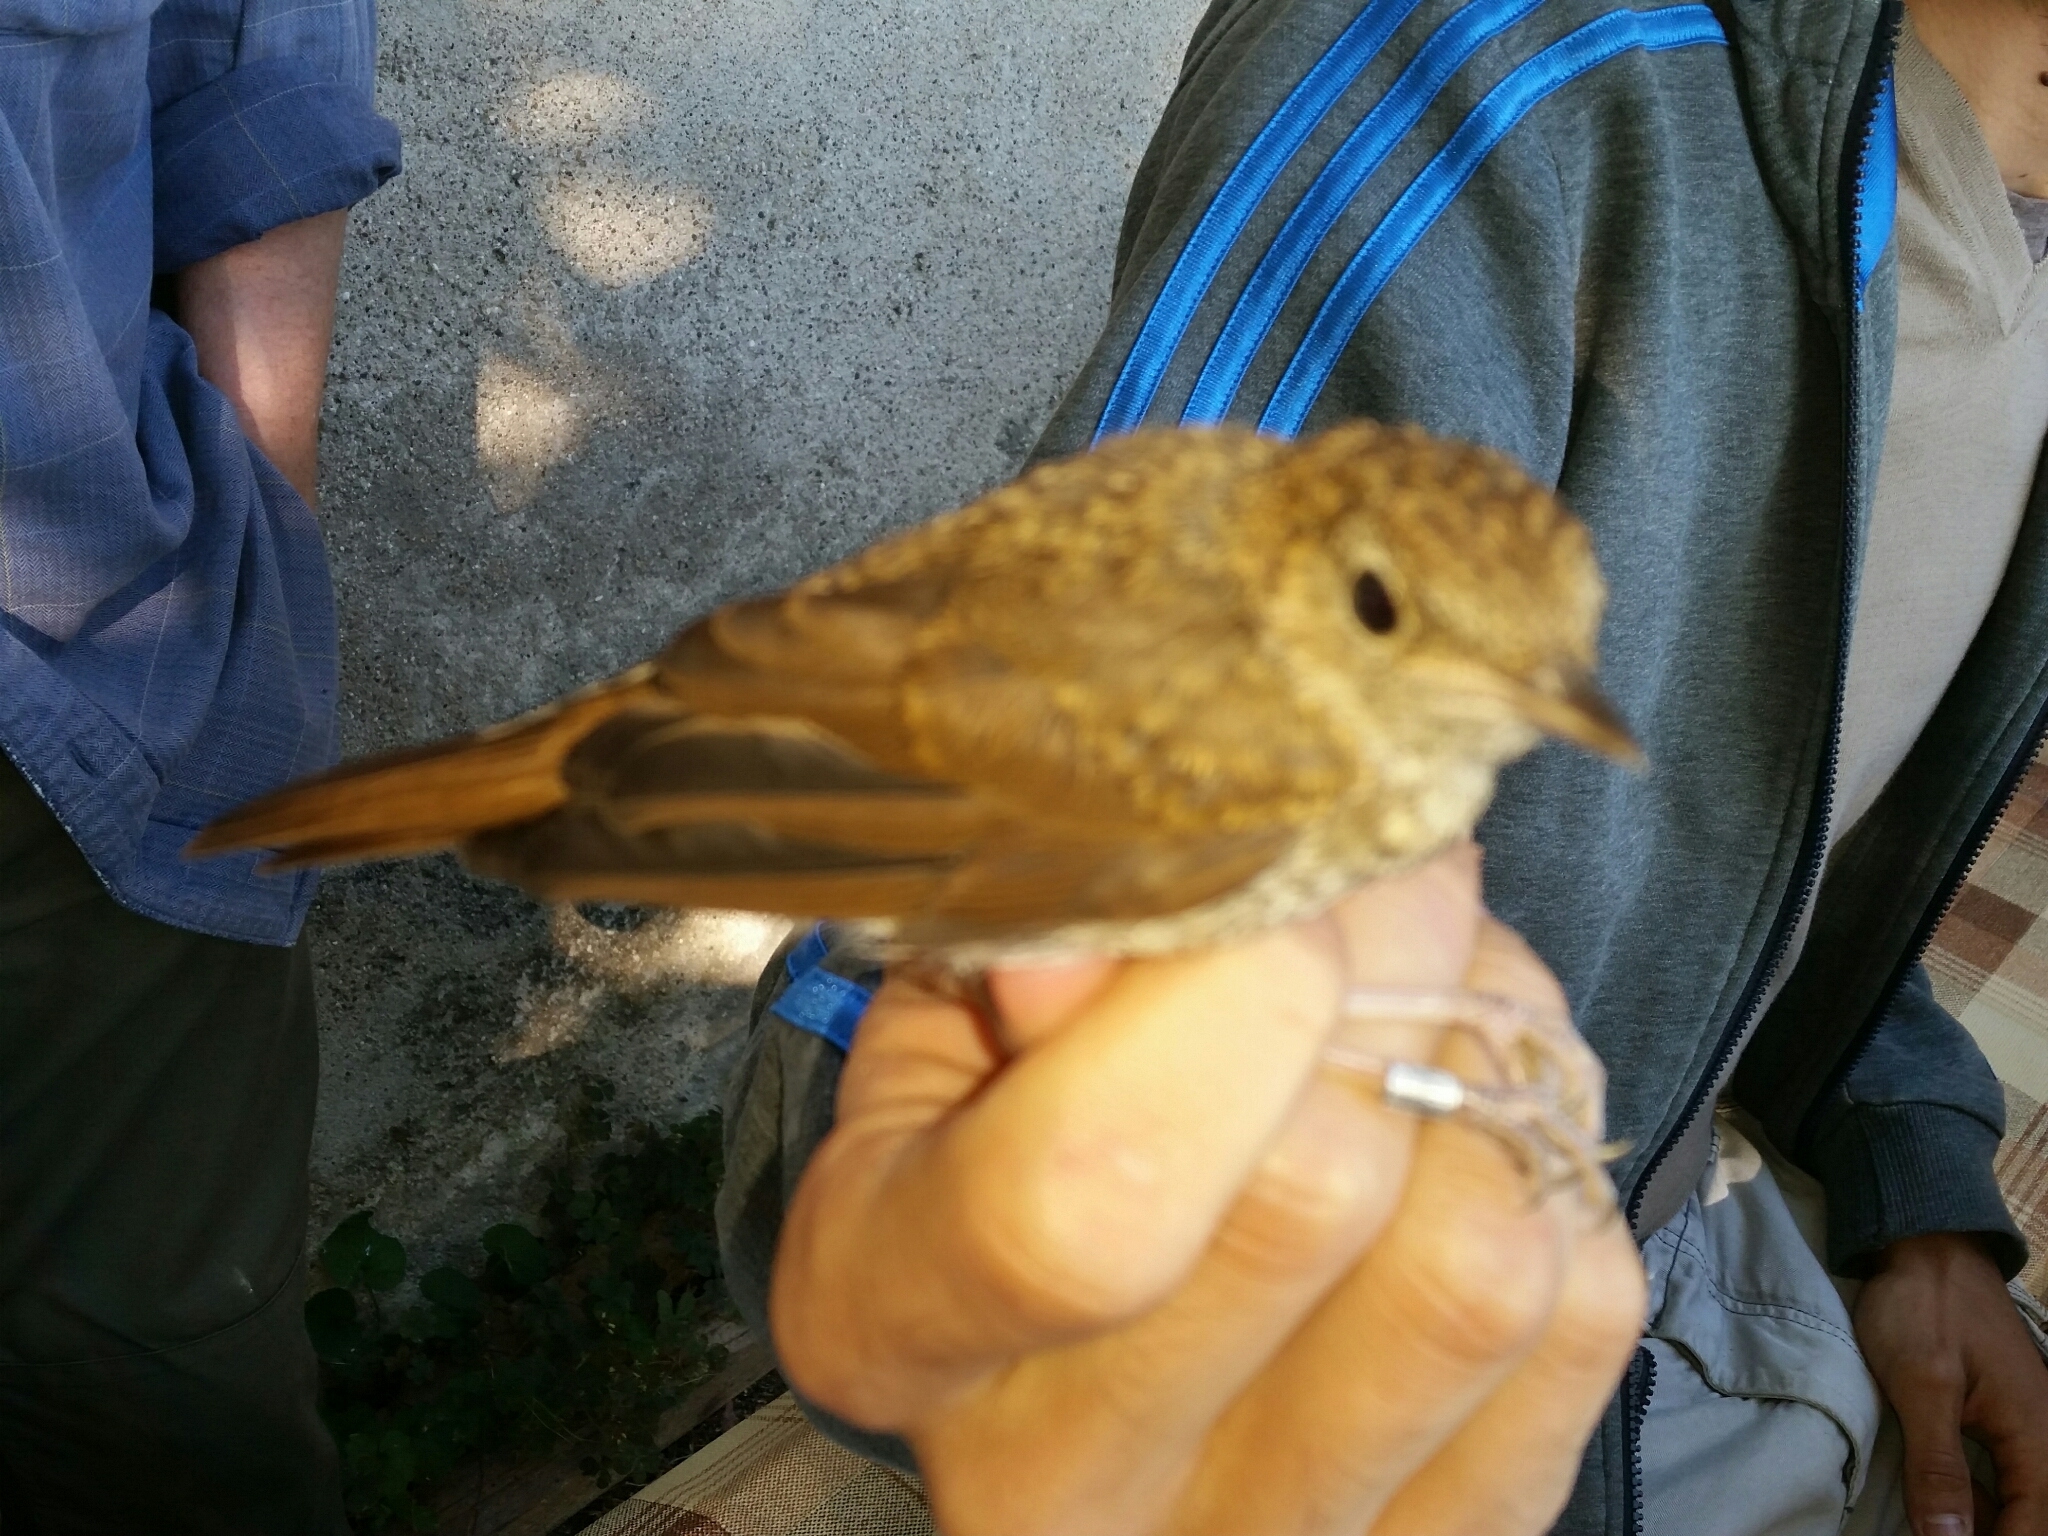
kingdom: Animalia
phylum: Chordata
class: Aves
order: Passeriformes
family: Muscicapidae
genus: Luscinia
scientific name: Luscinia megarhynchos
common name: Common nightingale
